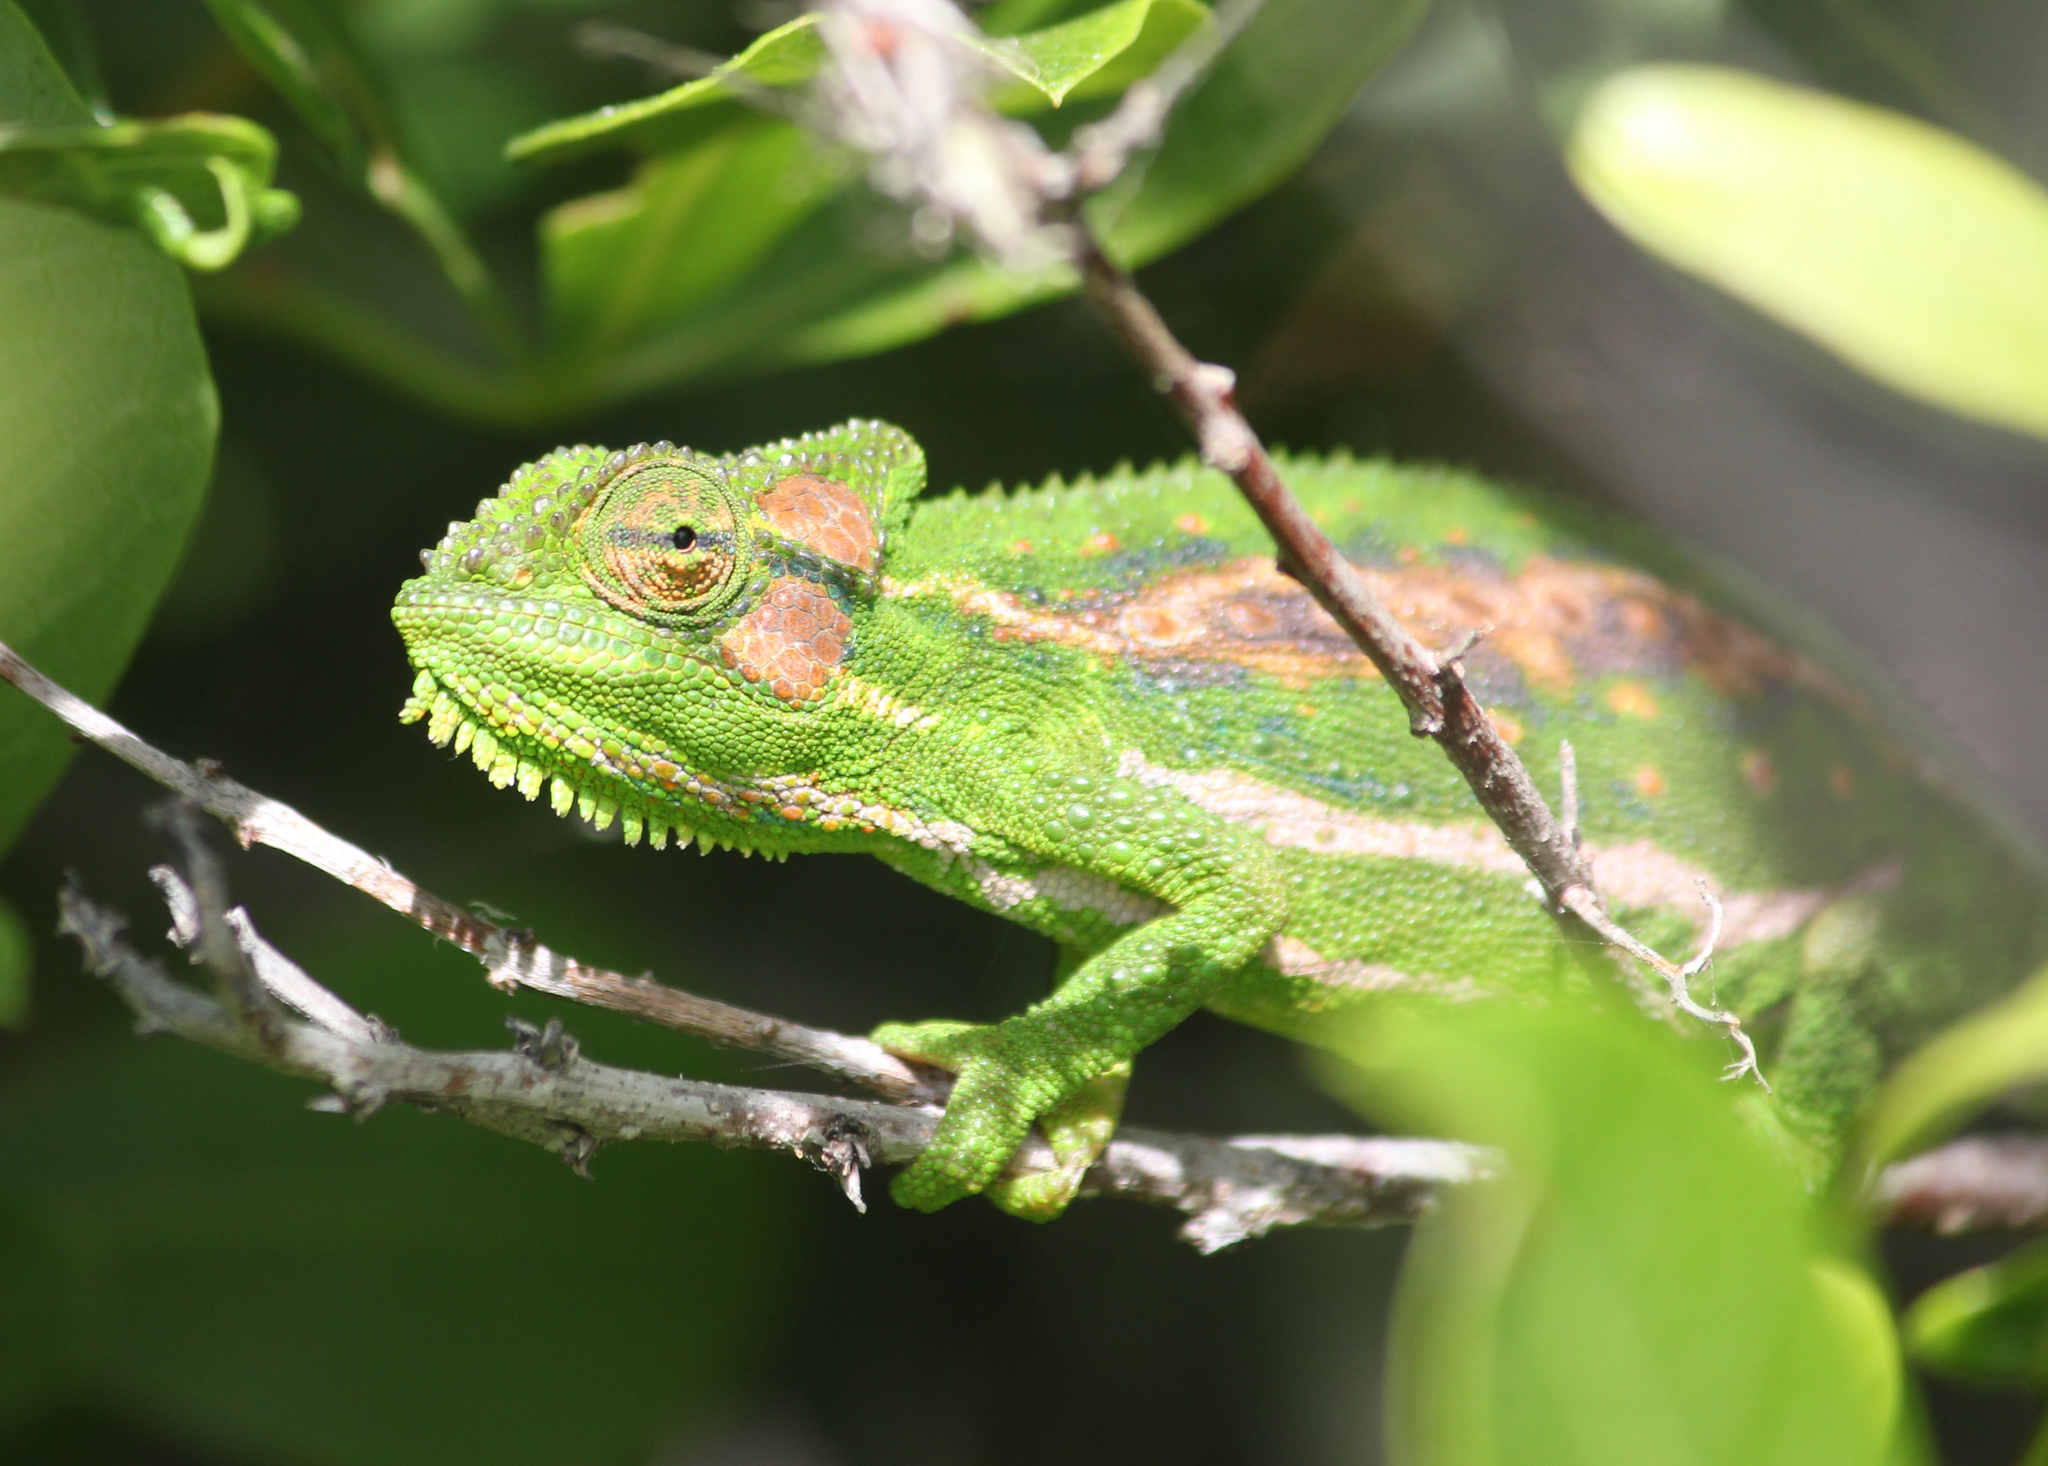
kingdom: Animalia
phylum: Chordata
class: Squamata
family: Chamaeleonidae
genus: Bradypodion
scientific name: Bradypodion pumilum
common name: Cape dwarf chameleon
